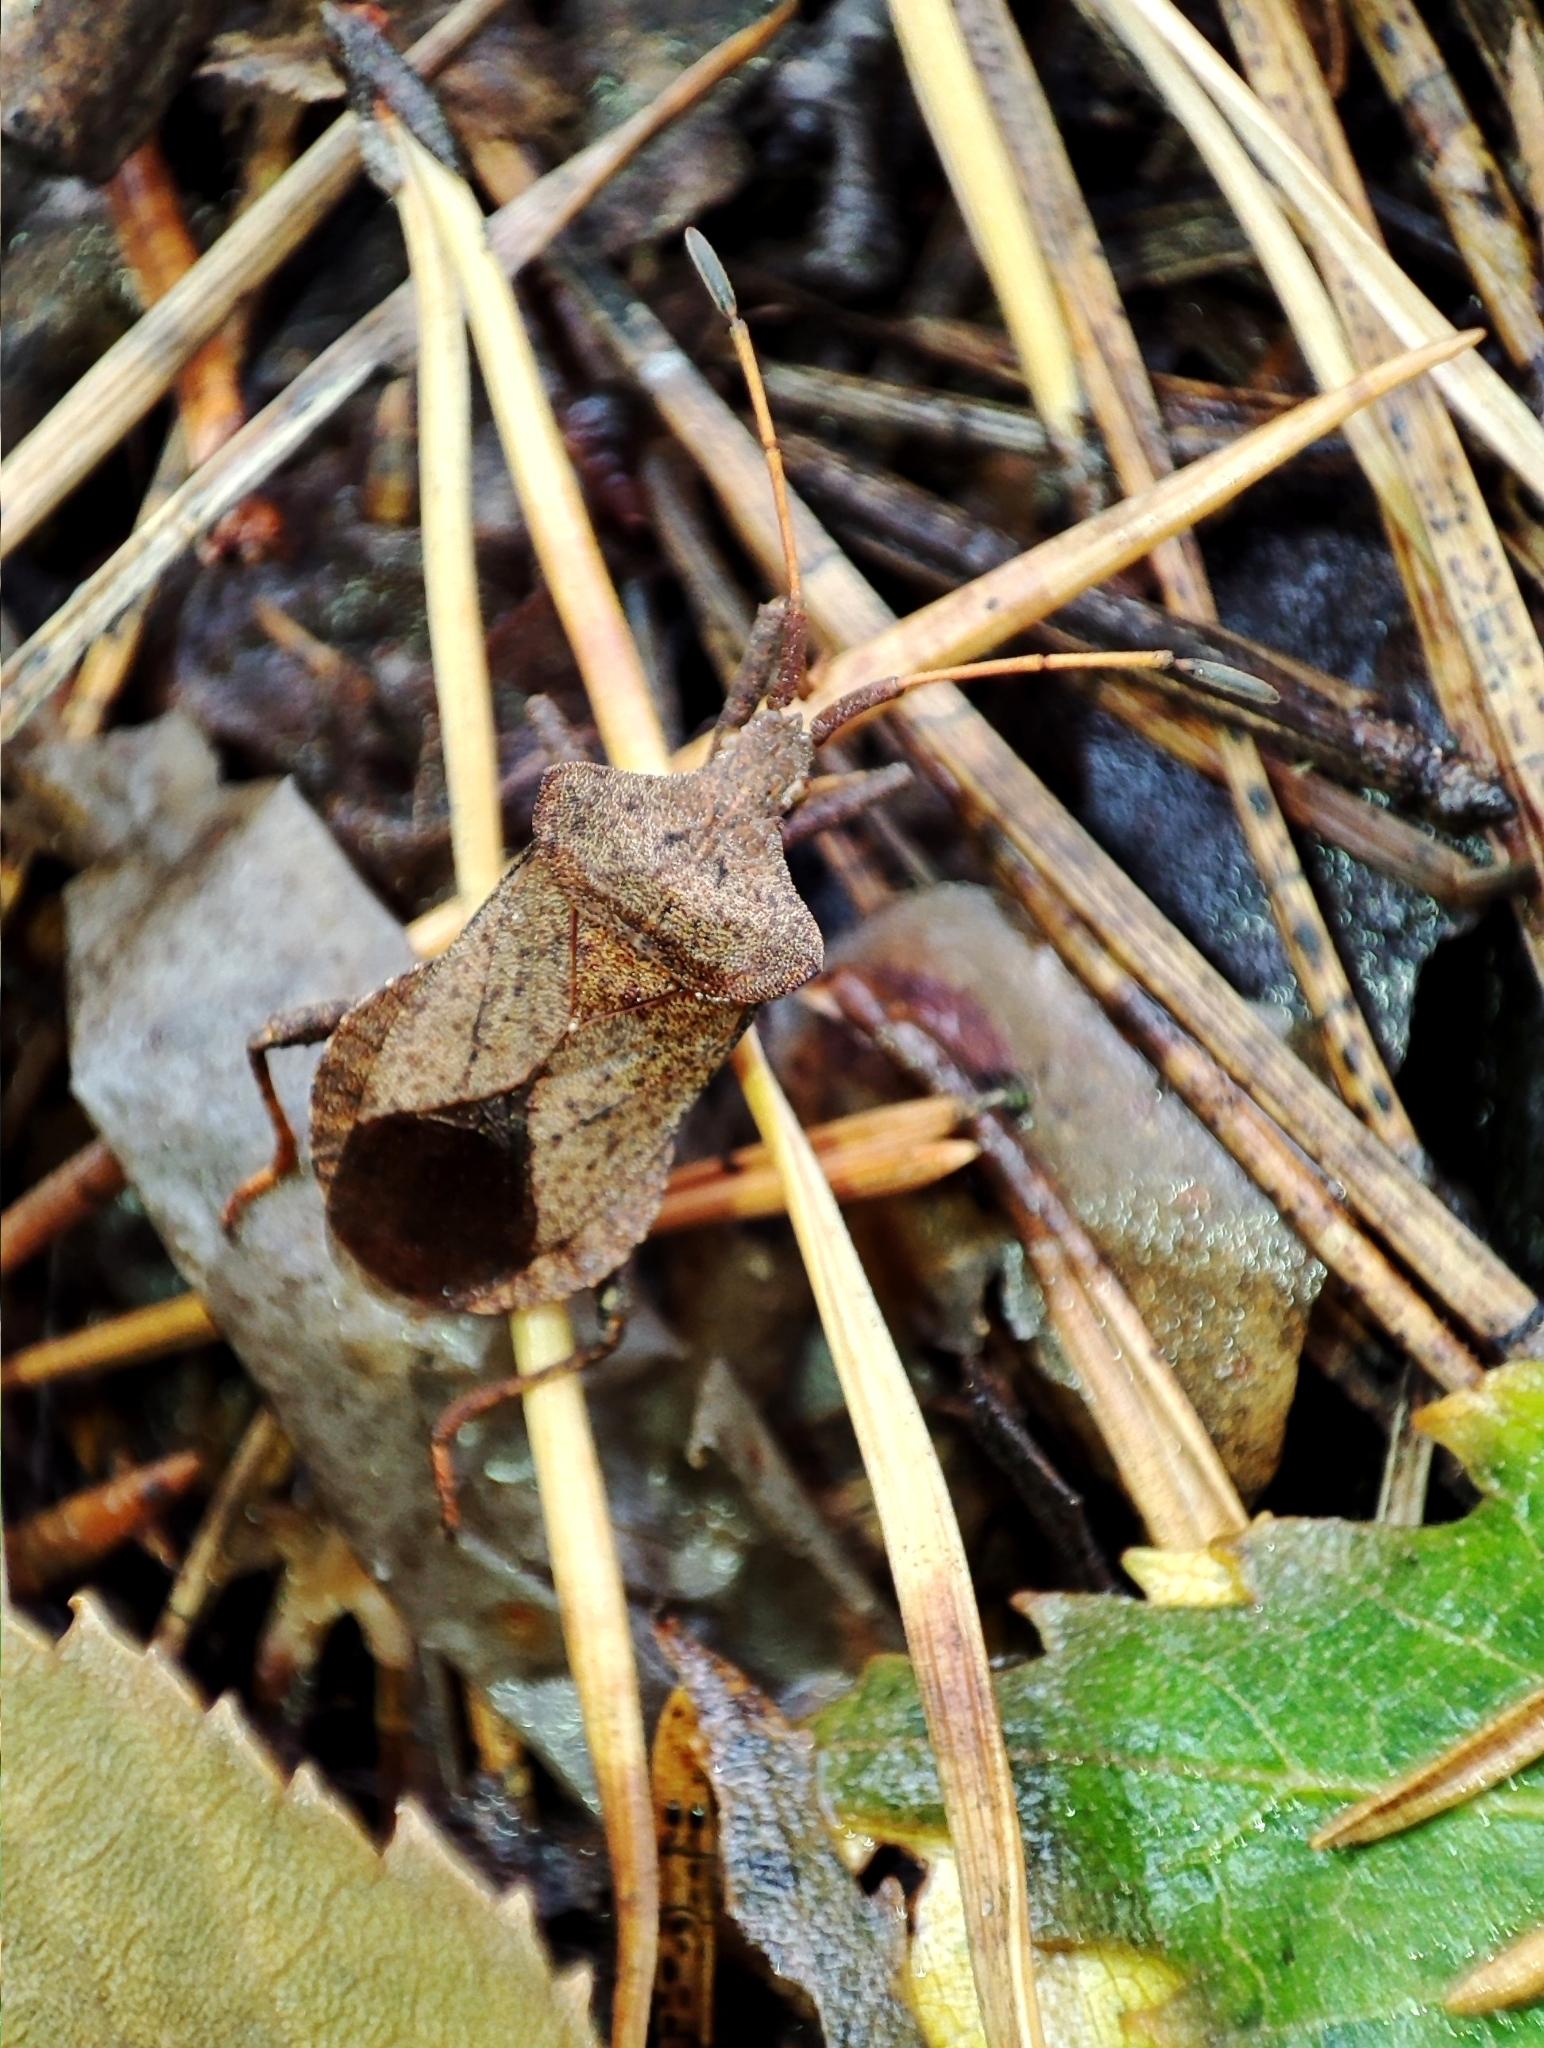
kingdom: Animalia
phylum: Arthropoda
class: Insecta
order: Hemiptera
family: Coreidae
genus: Coreus
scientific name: Coreus marginatus
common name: Dock bug
